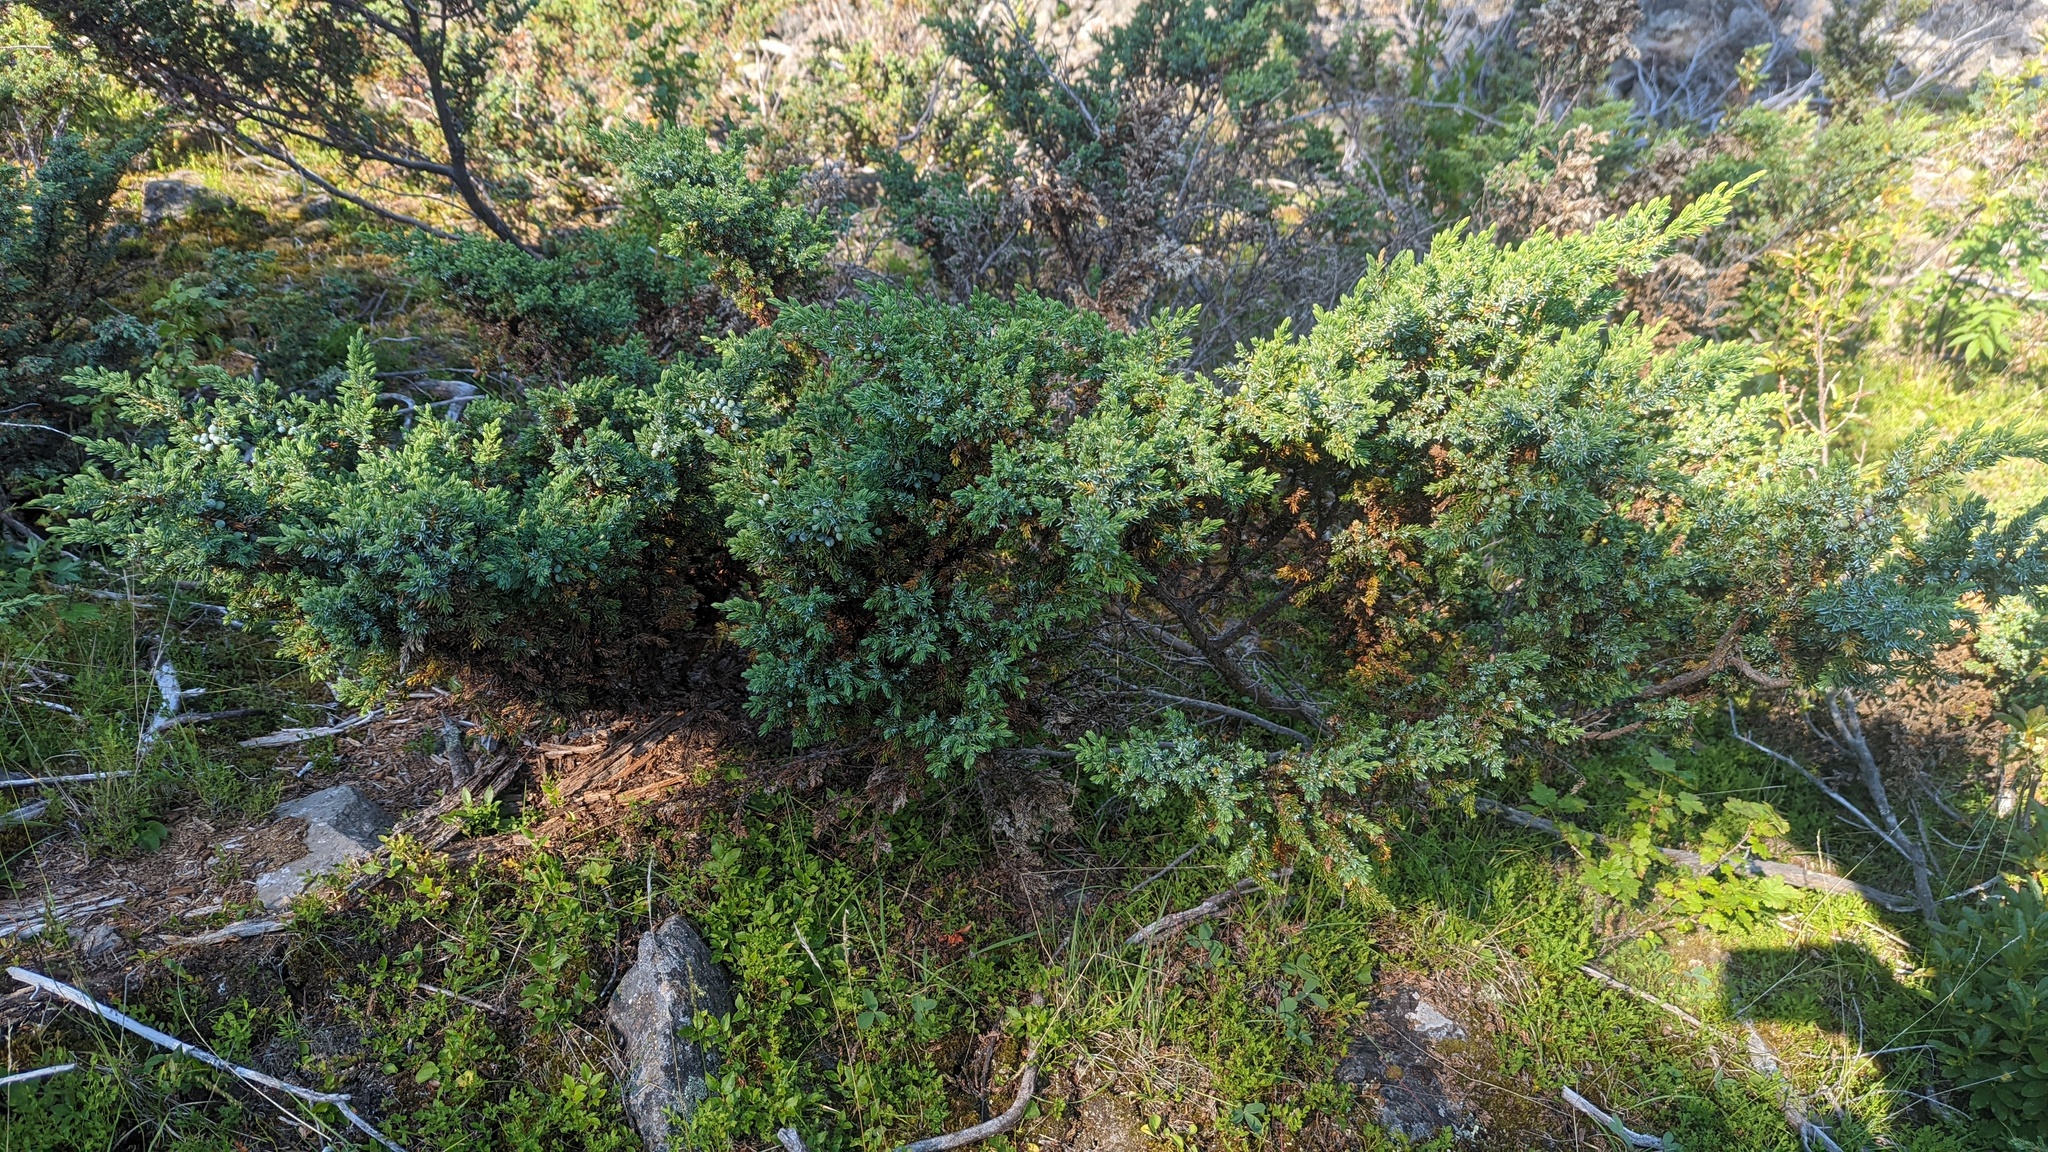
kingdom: Plantae
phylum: Tracheophyta
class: Pinopsida
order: Pinales
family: Cupressaceae
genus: Juniperus
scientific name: Juniperus communis
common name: Common juniper
